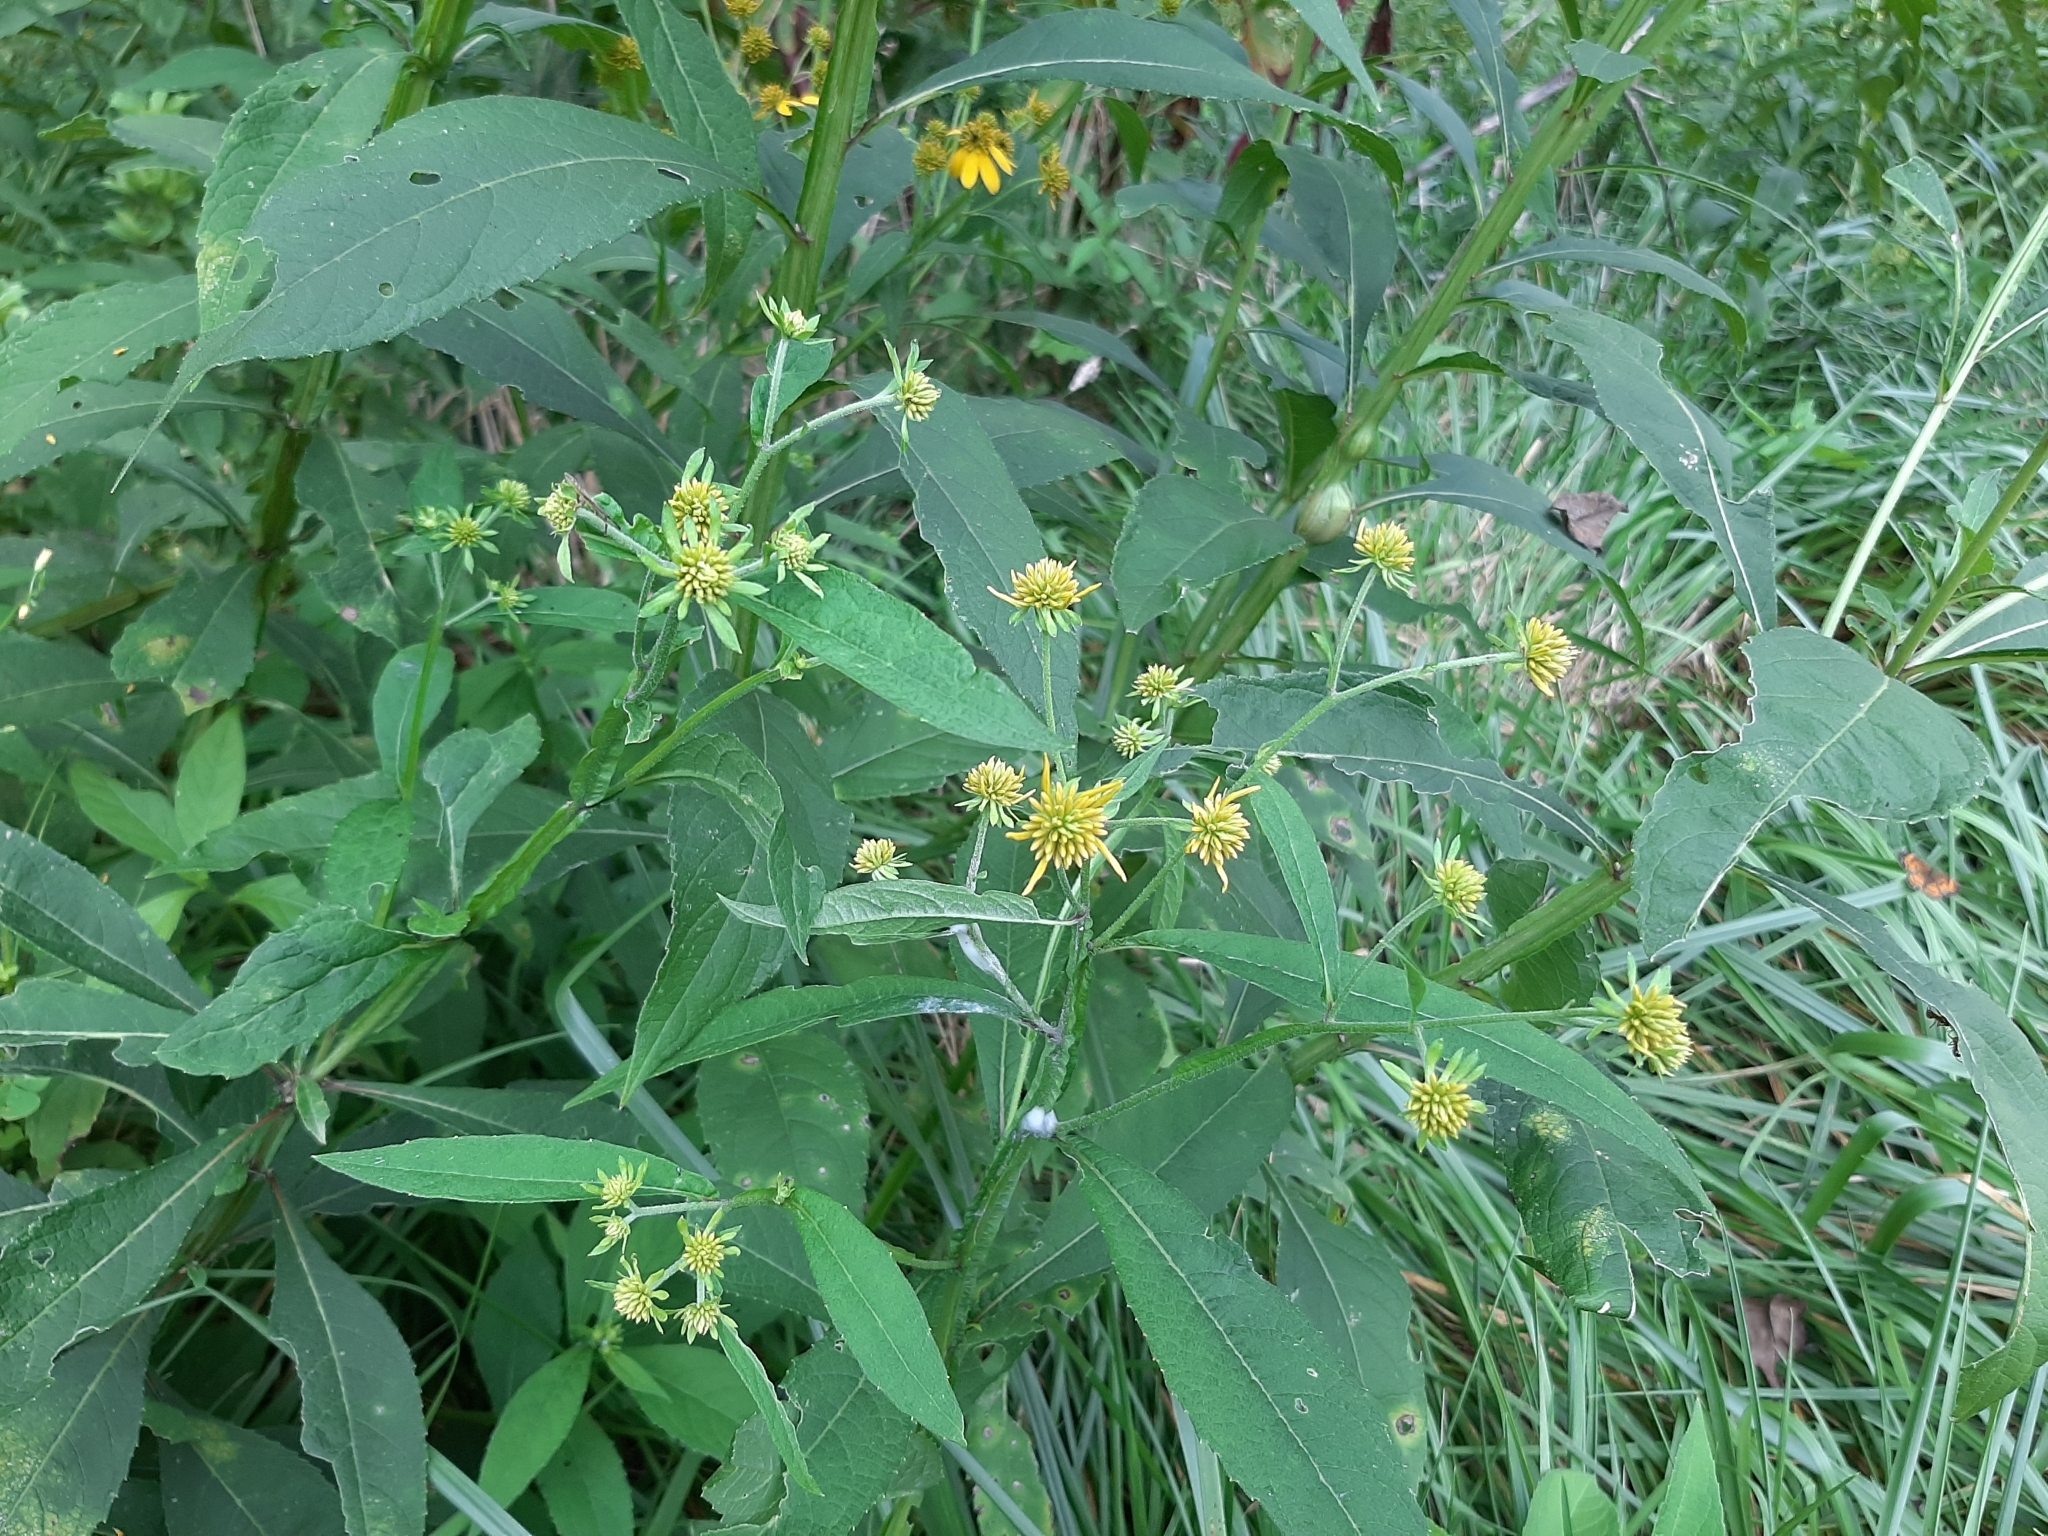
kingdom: Plantae
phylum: Tracheophyta
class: Magnoliopsida
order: Asterales
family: Asteraceae
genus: Verbesina
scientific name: Verbesina alternifolia
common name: Wingstem
